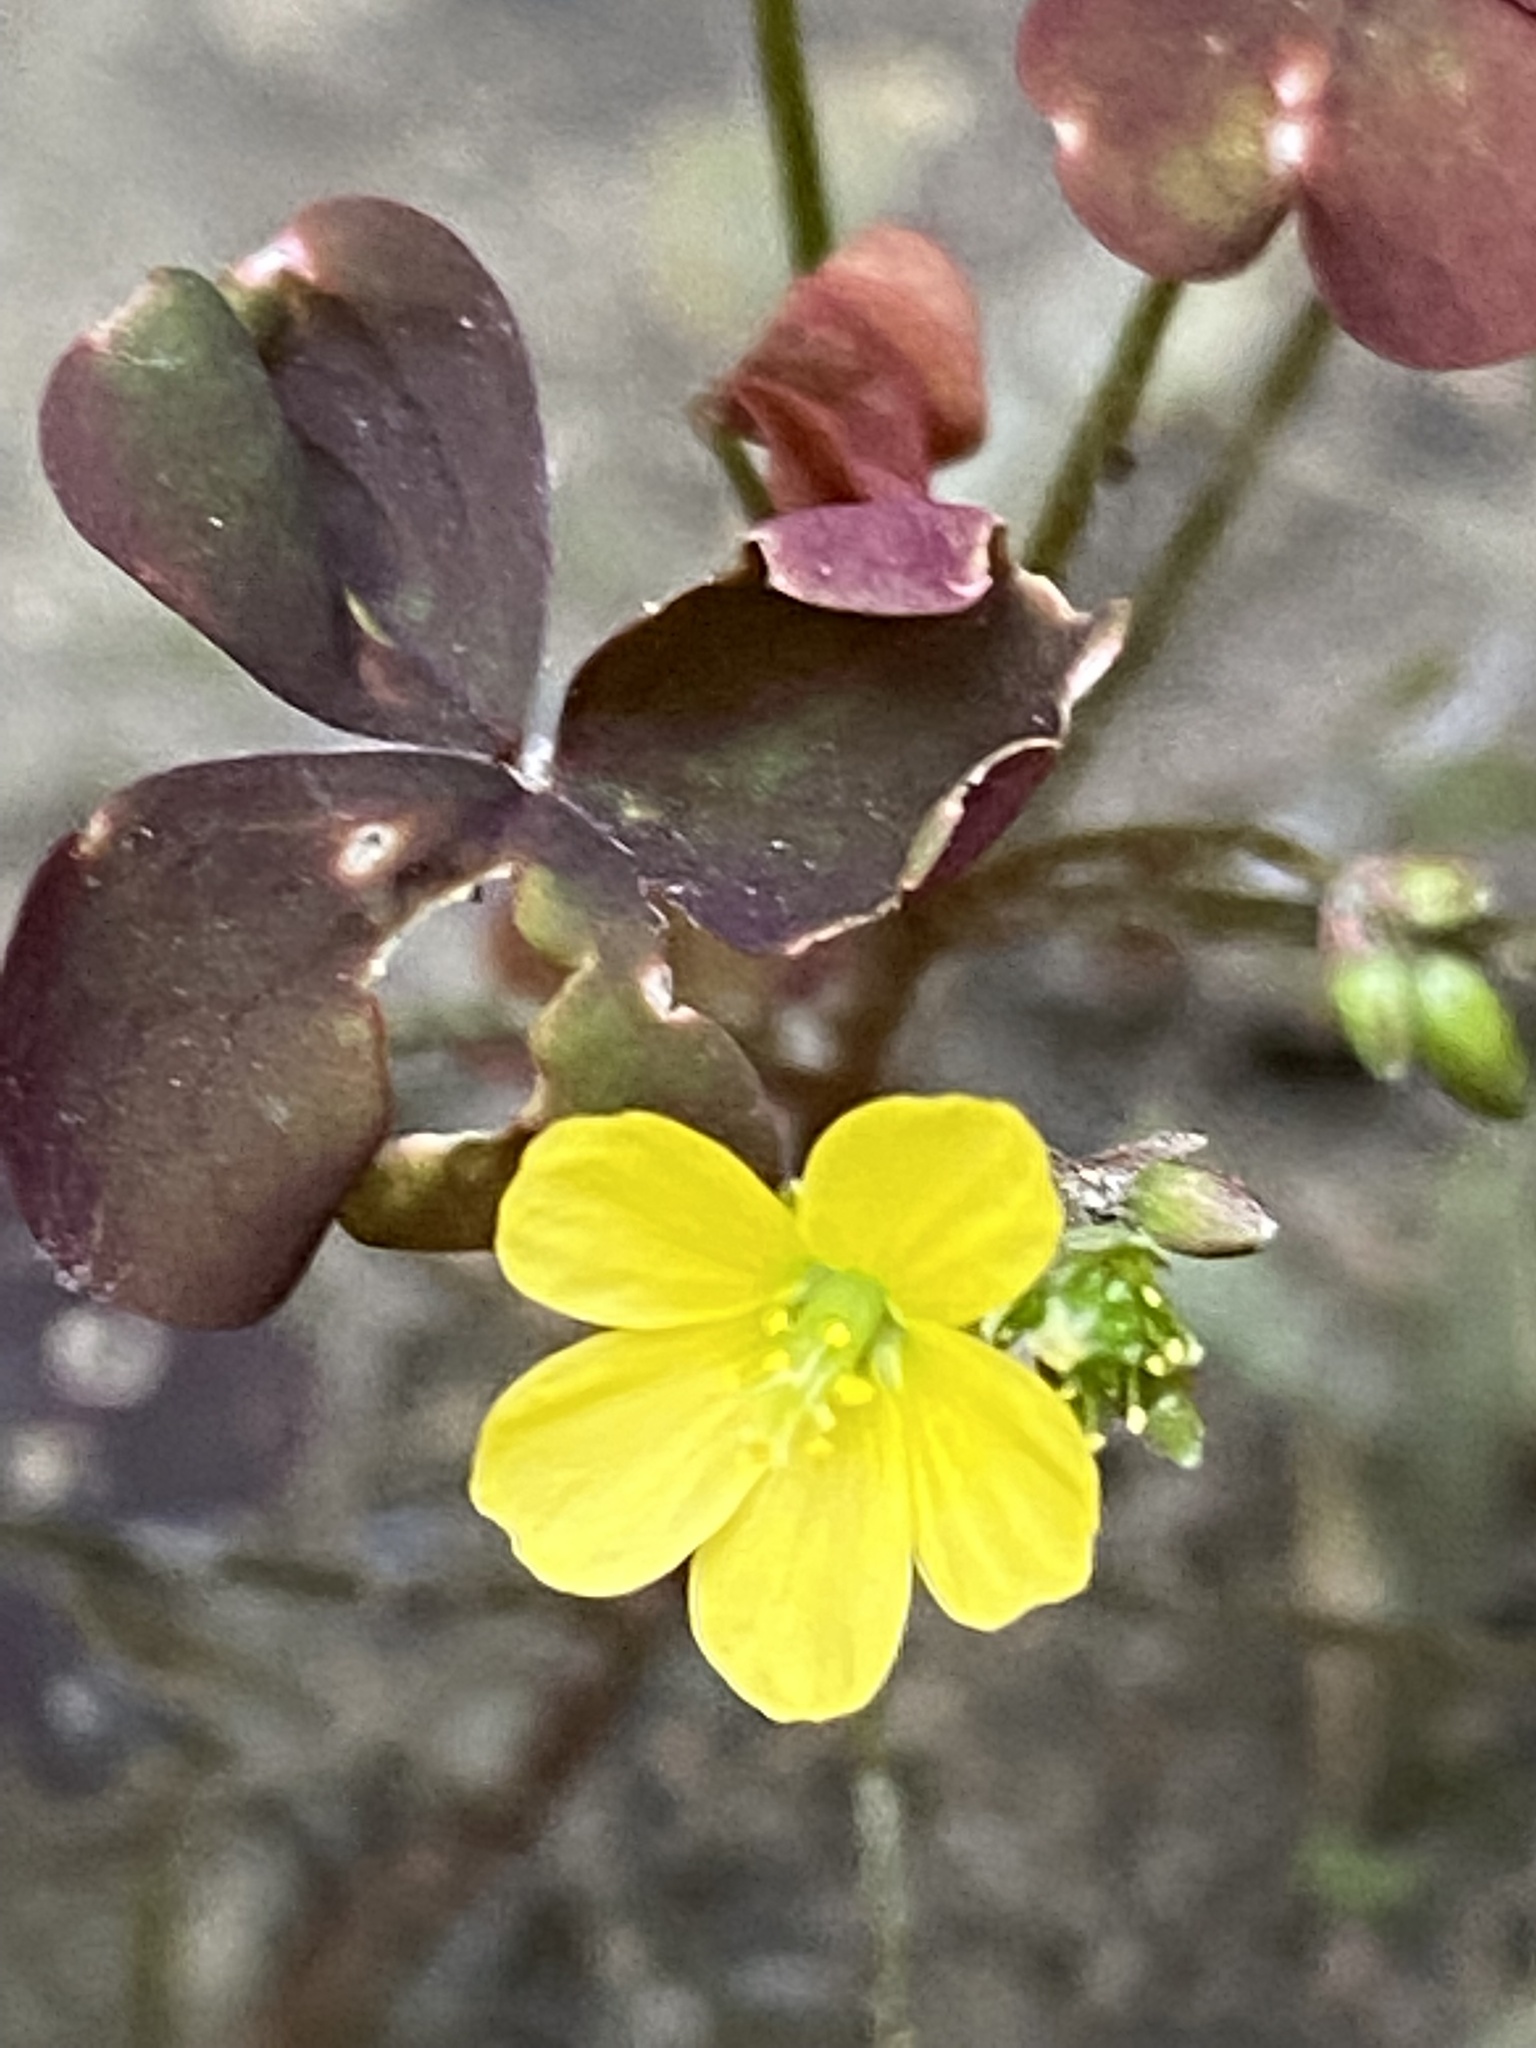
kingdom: Plantae
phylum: Tracheophyta
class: Magnoliopsida
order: Oxalidales
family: Oxalidaceae
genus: Oxalis
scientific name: Oxalis stricta
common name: Upright yellow-sorrel
